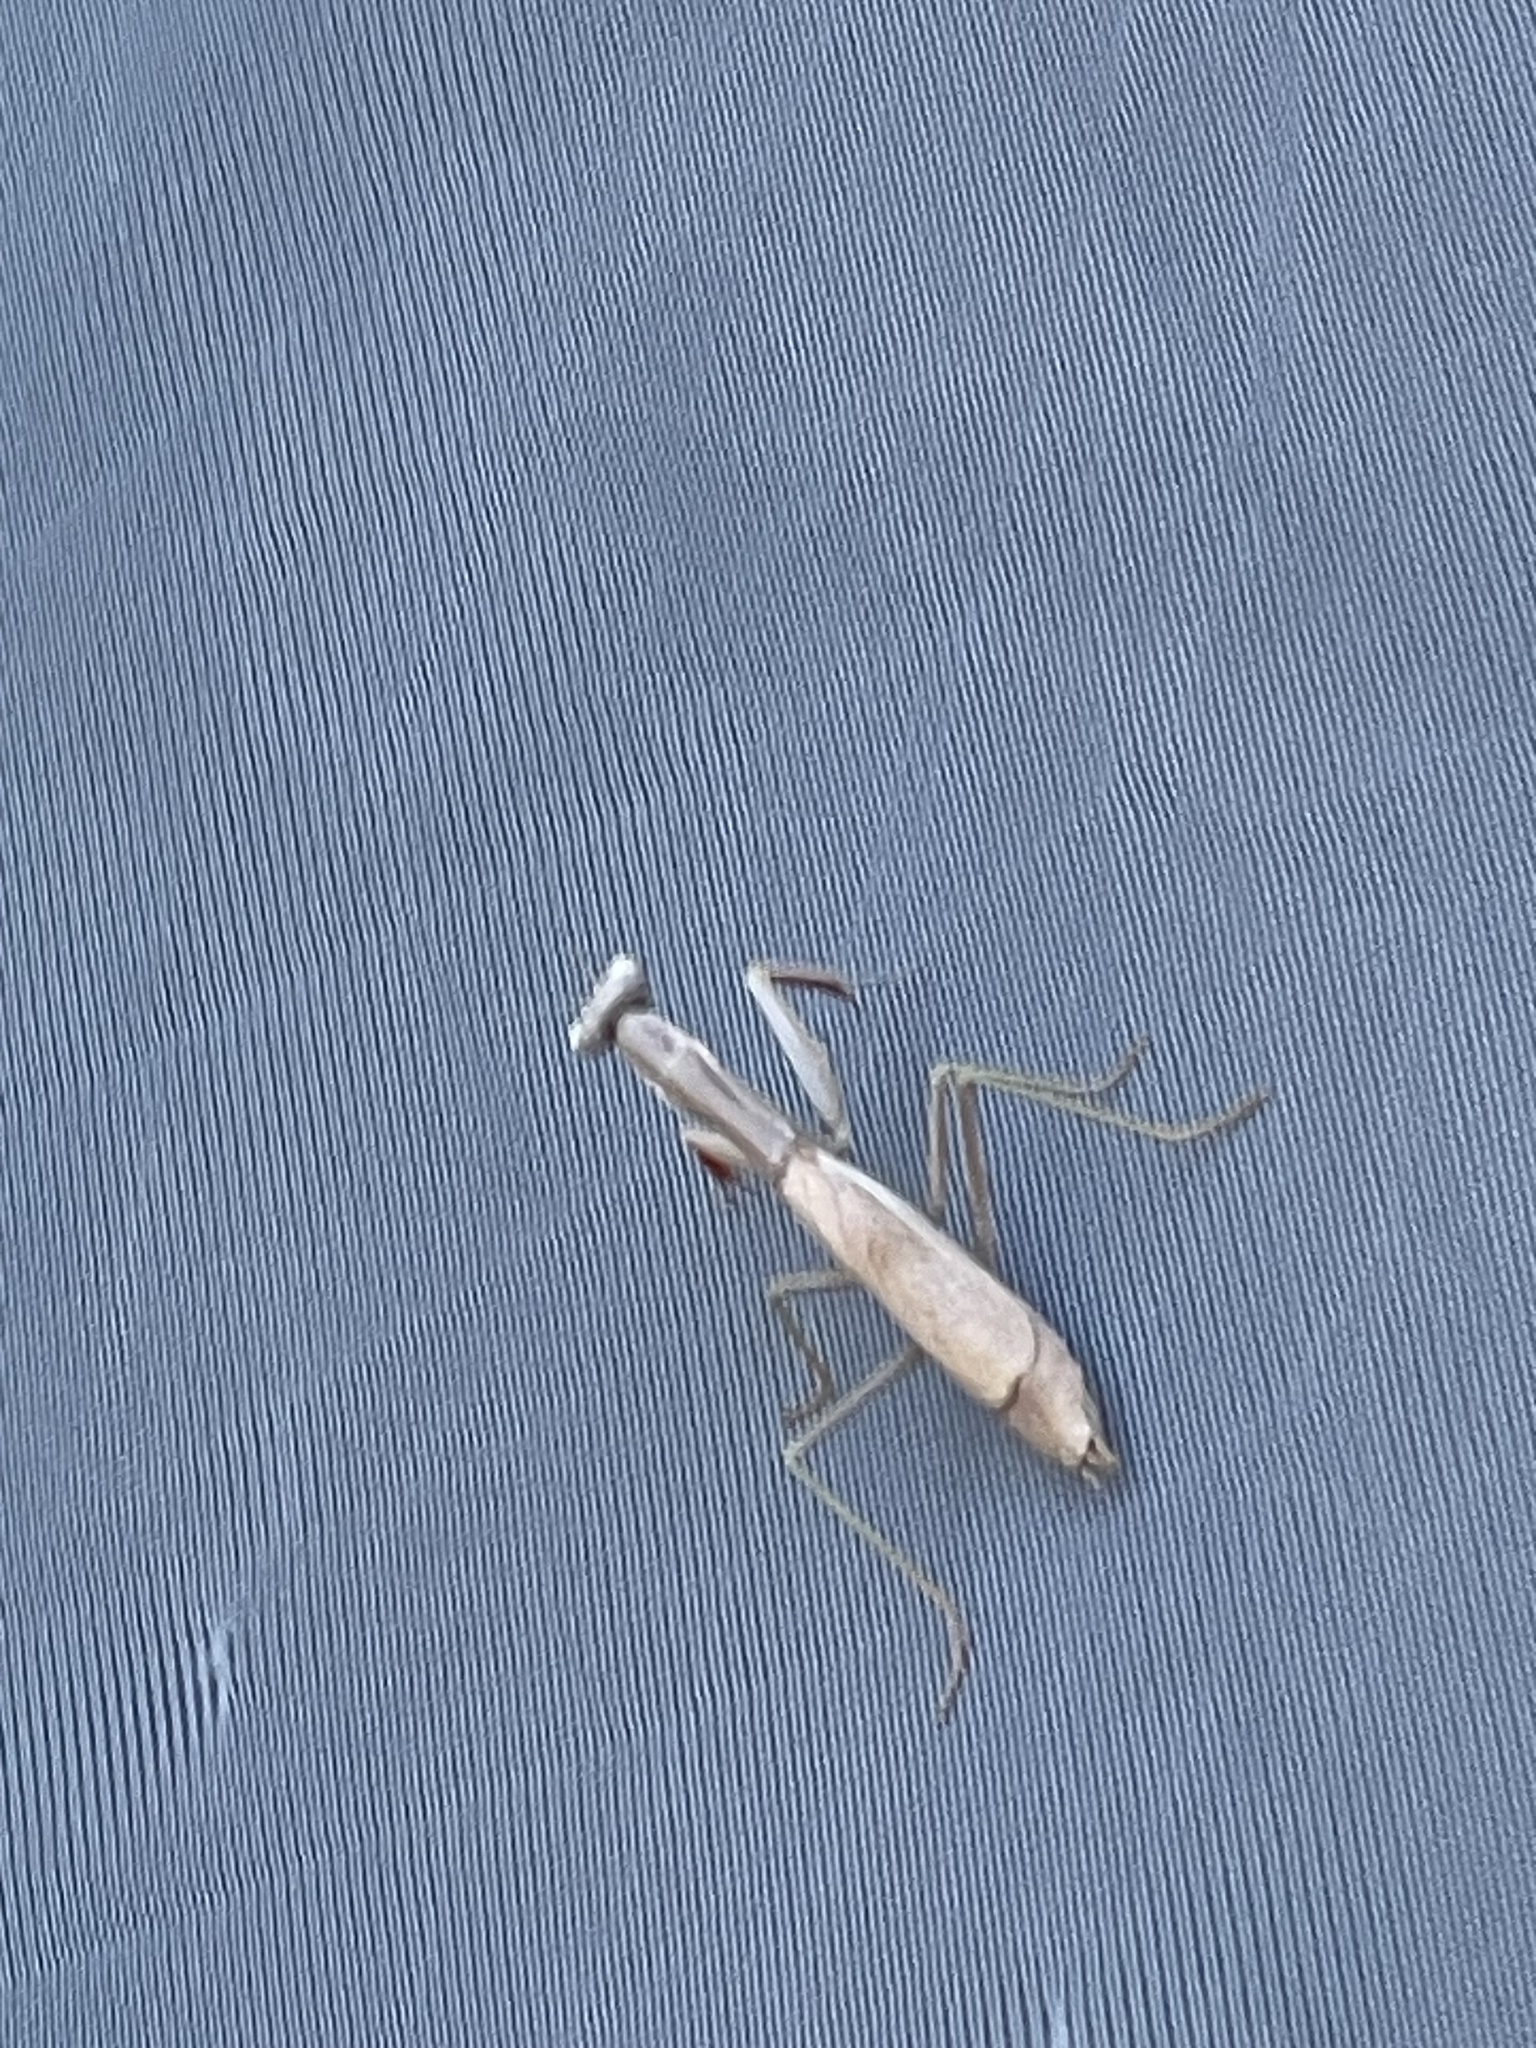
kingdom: Animalia
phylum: Arthropoda
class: Insecta
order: Mantodea
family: Eremiaphilidae
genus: Iris
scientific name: Iris oratoria
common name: Mediterranean mantis
